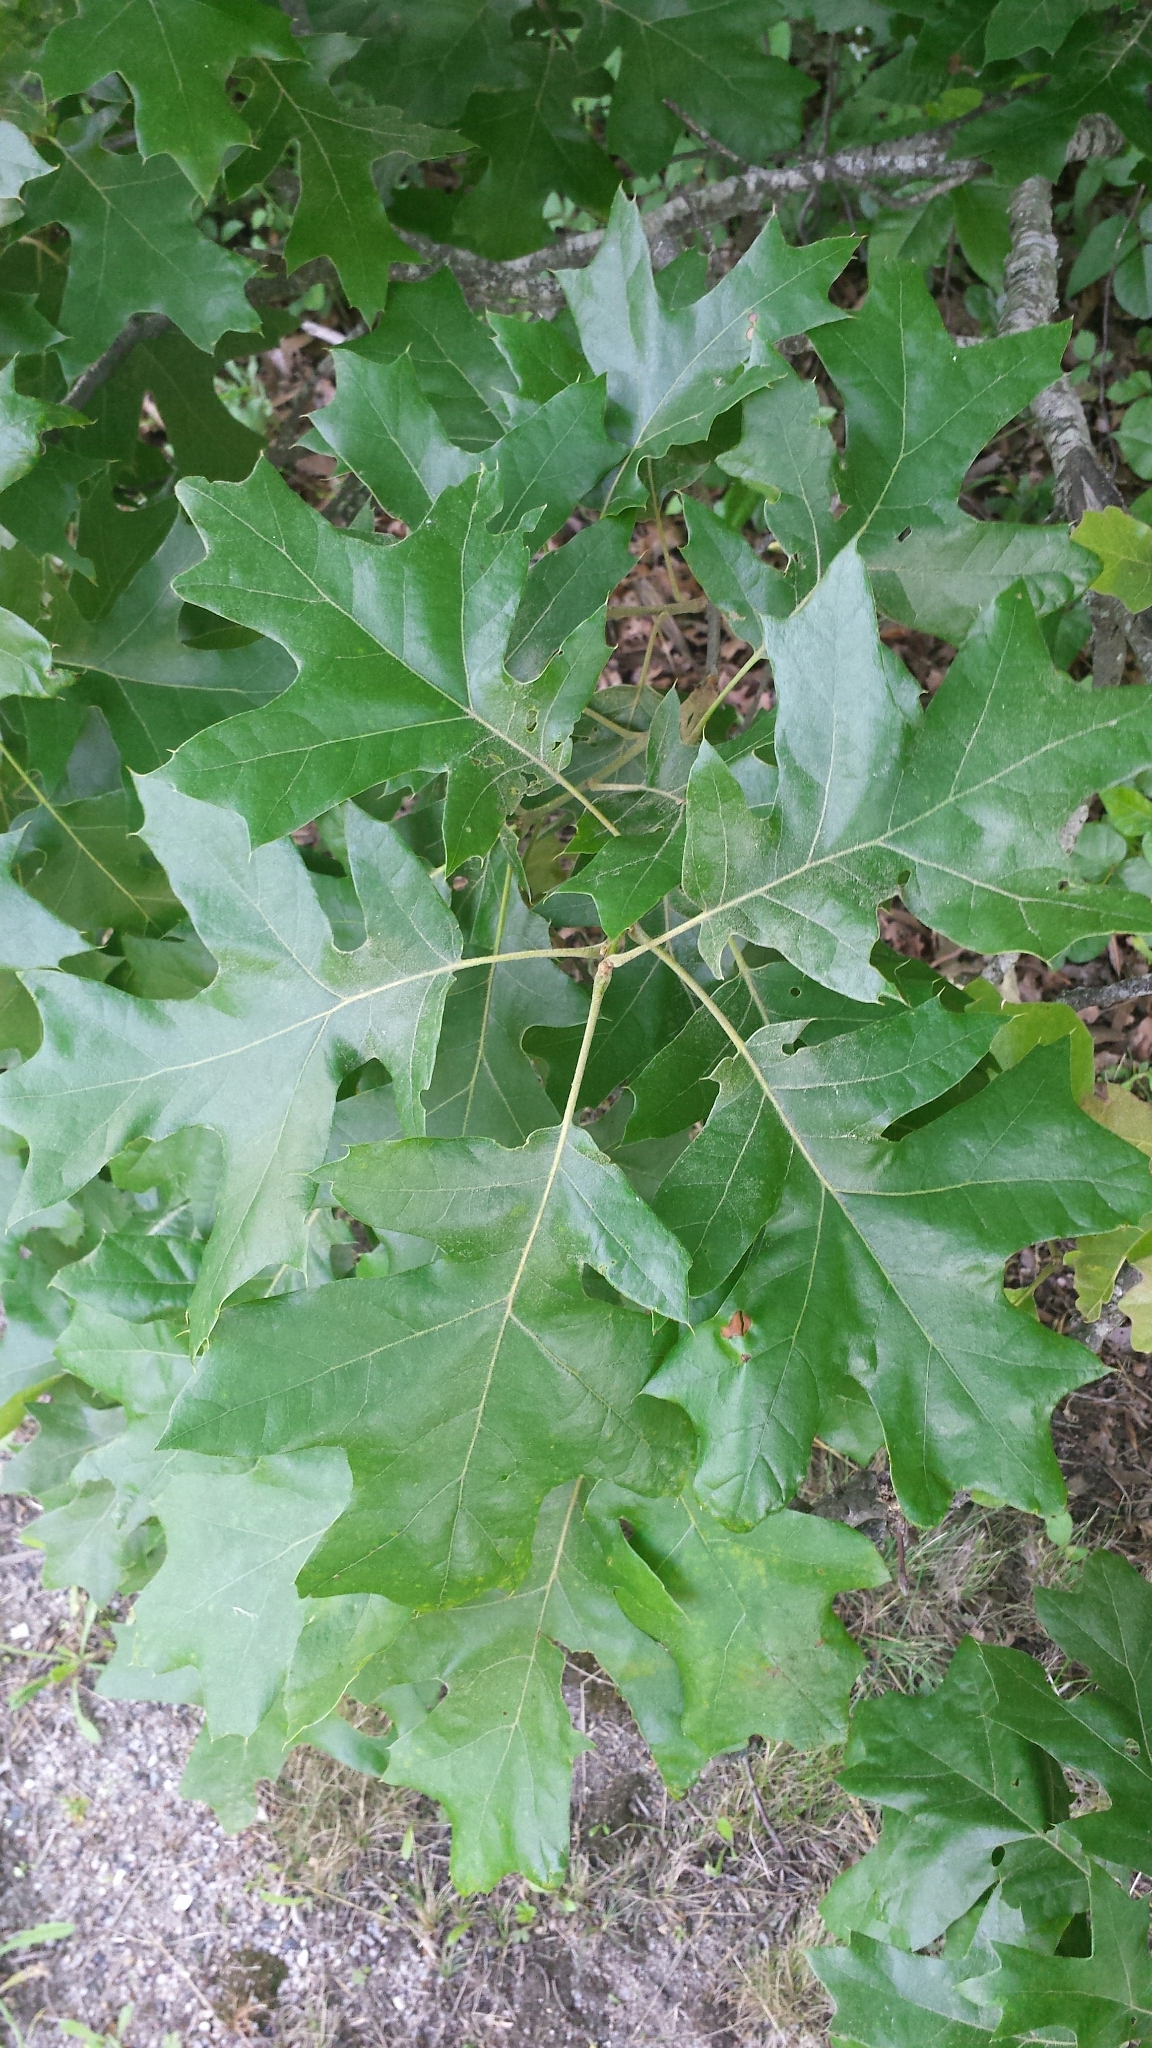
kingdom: Plantae
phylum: Tracheophyta
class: Magnoliopsida
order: Fagales
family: Fagaceae
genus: Quercus
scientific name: Quercus velutina
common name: Black oak
